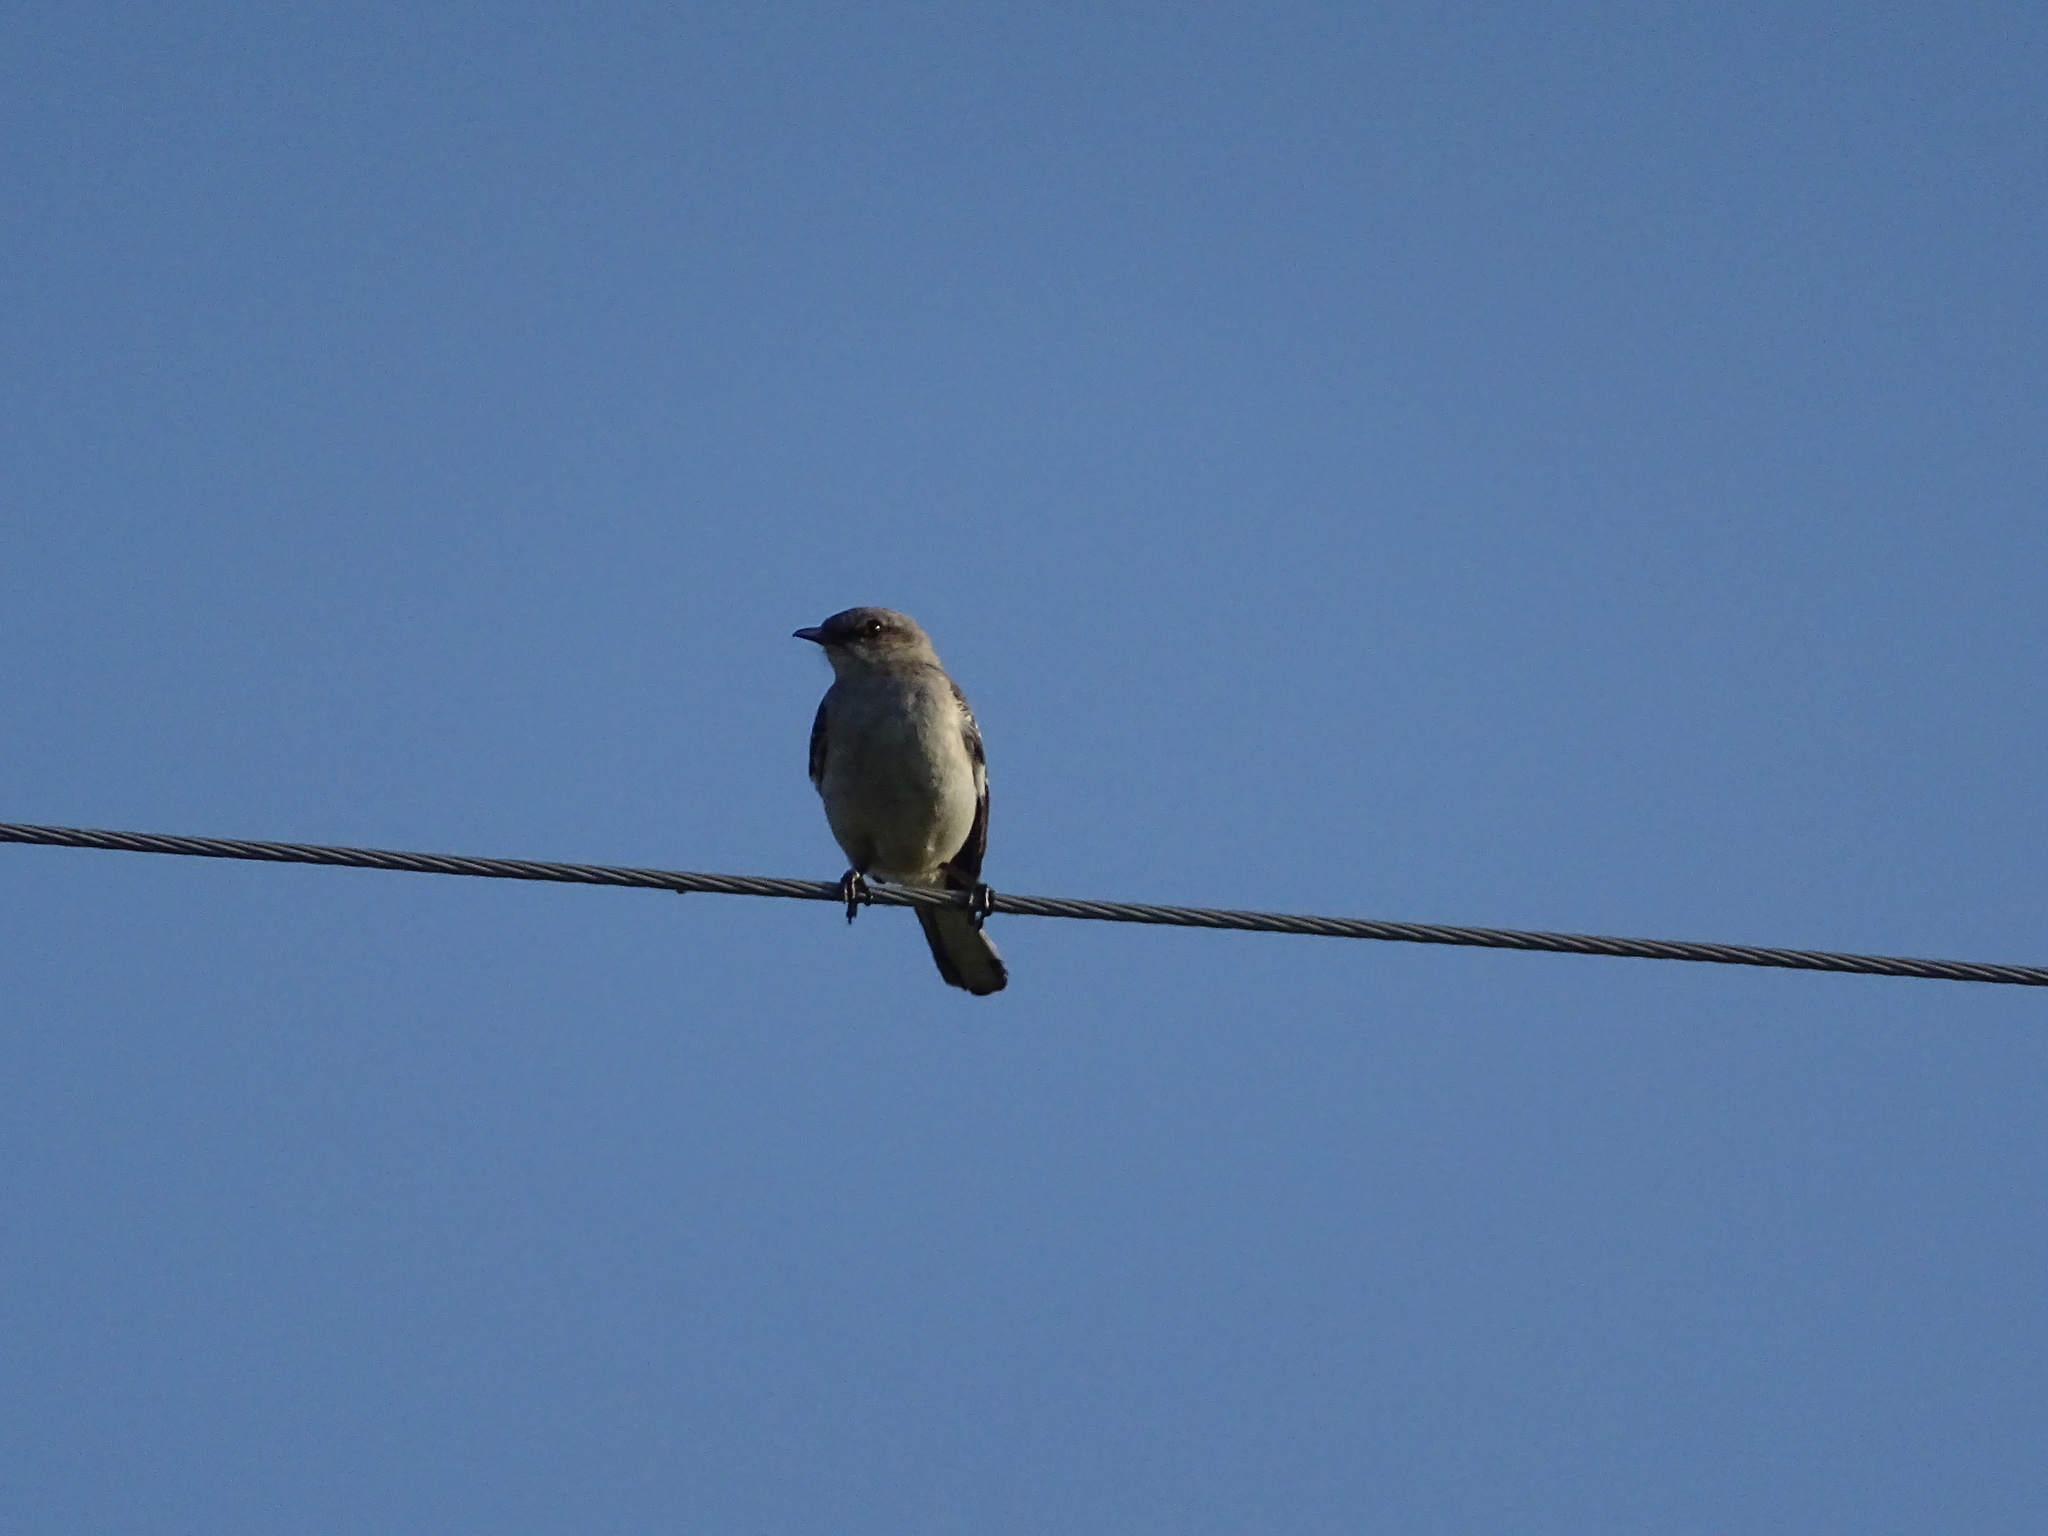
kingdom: Animalia
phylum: Chordata
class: Aves
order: Passeriformes
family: Mimidae
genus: Mimus
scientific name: Mimus polyglottos
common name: Northern mockingbird
